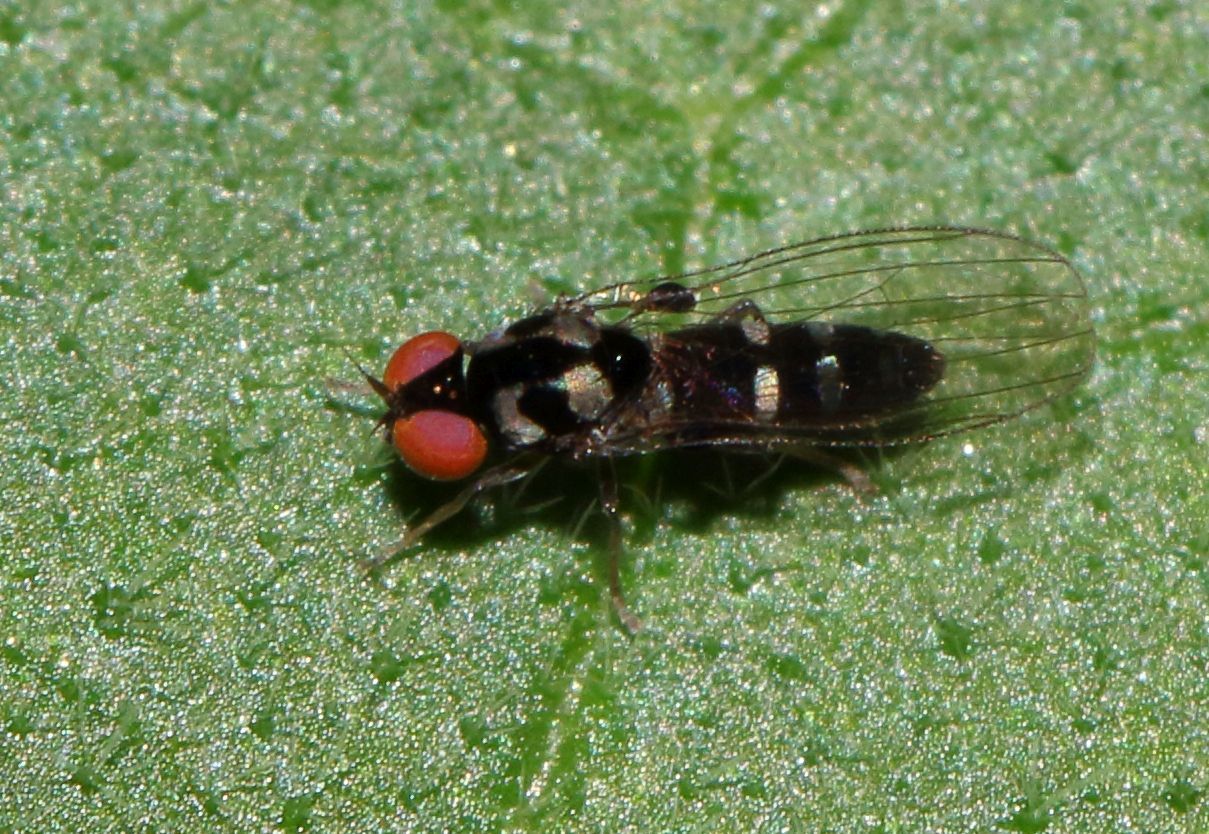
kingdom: Animalia
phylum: Arthropoda
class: Insecta
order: Diptera
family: Platypezidae
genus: Bertamyia
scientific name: Bertamyia
